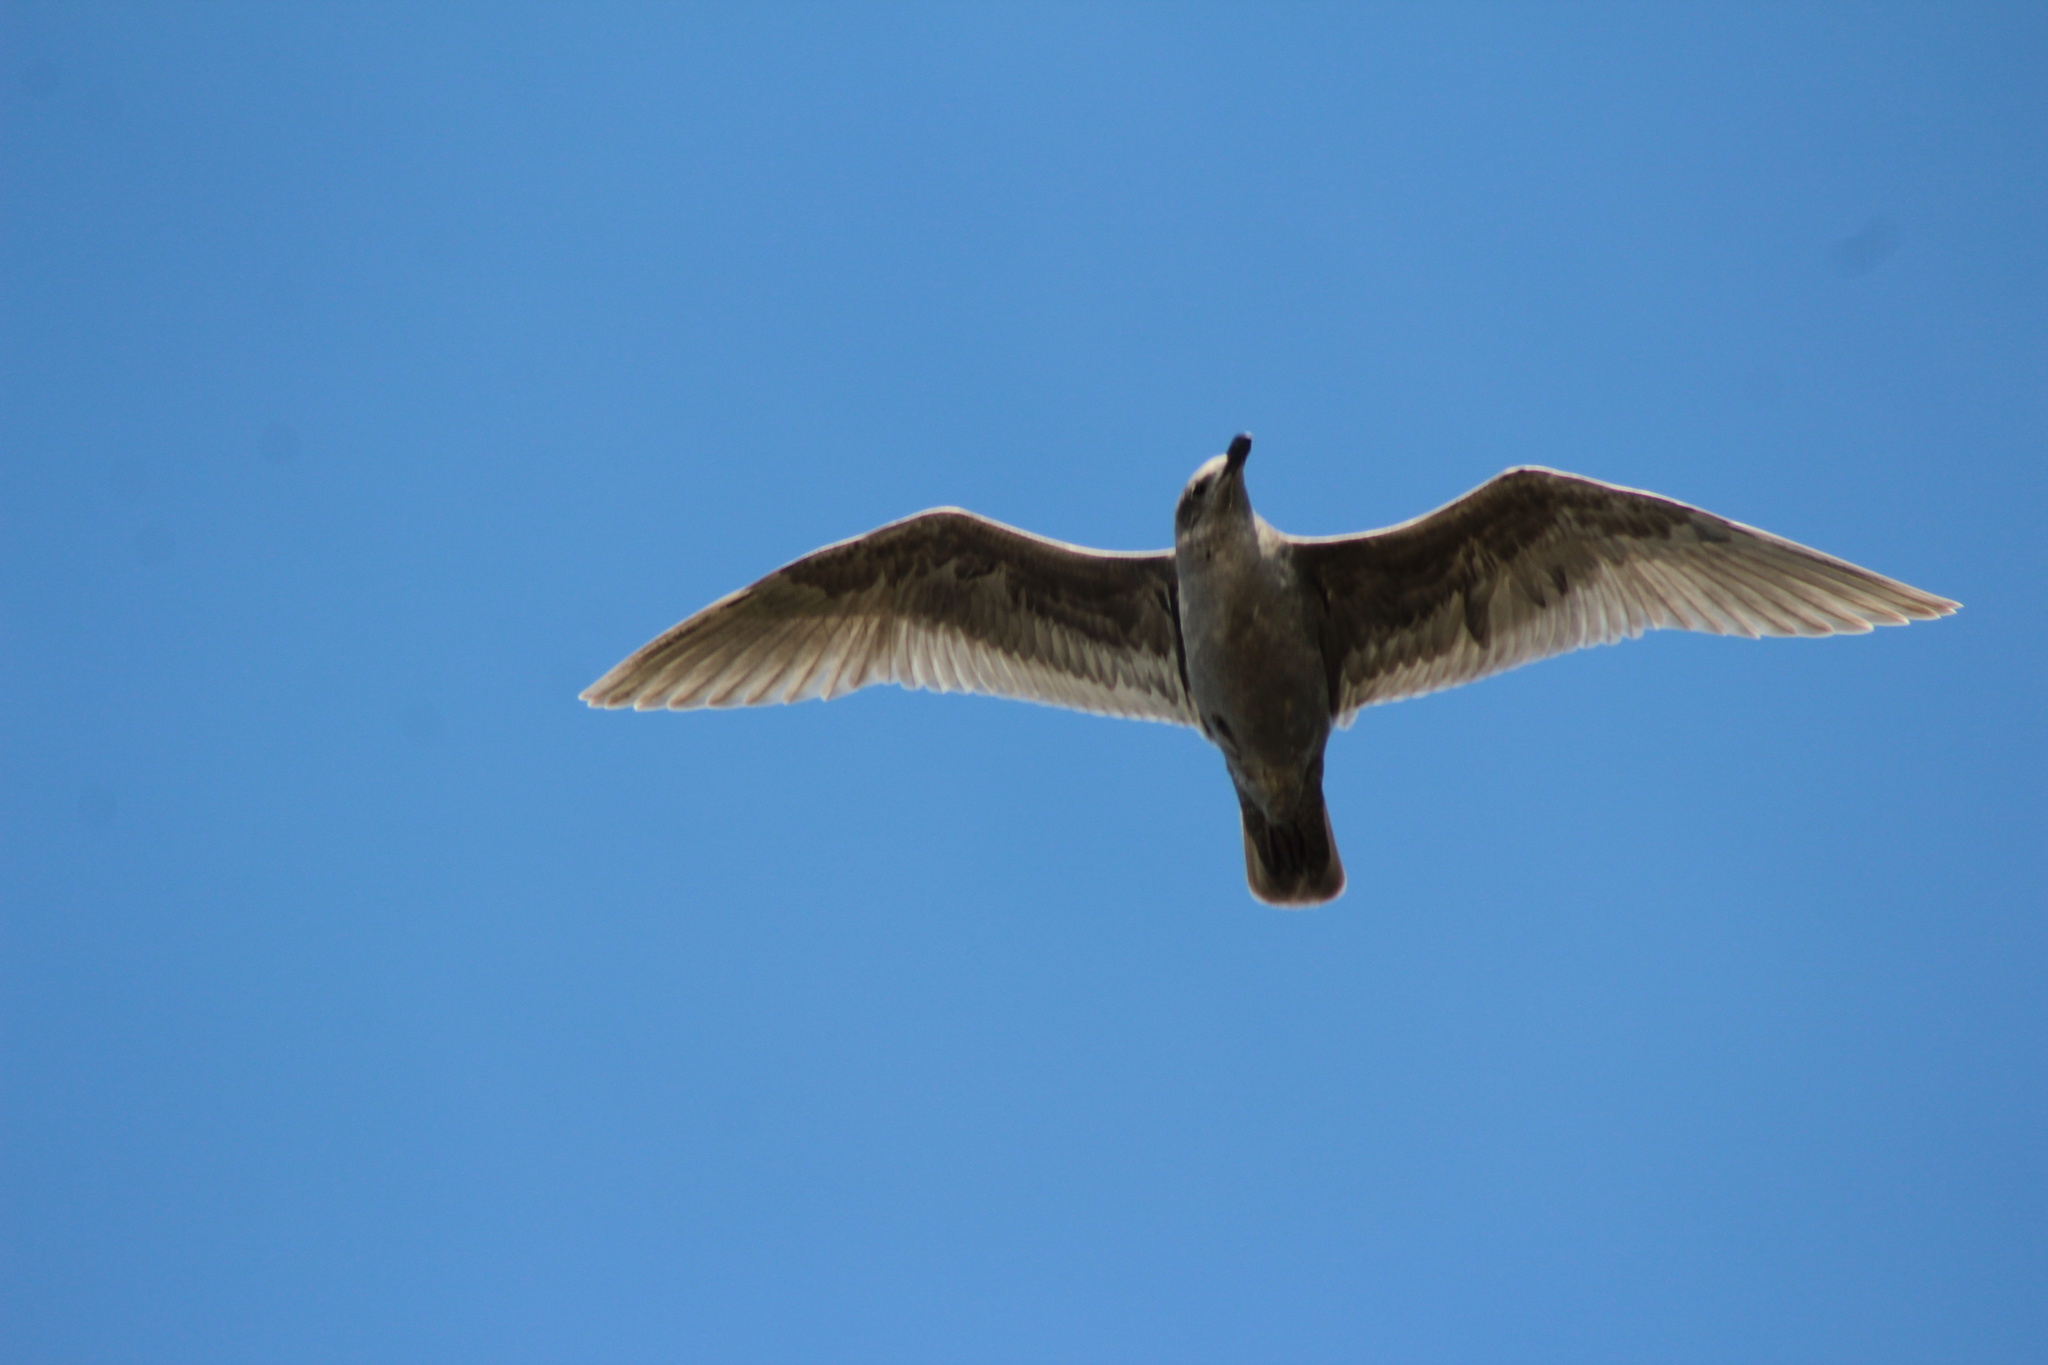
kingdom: Animalia
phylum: Chordata
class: Aves
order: Charadriiformes
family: Laridae
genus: Larus
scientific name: Larus glaucescens
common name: Glaucous-winged gull
